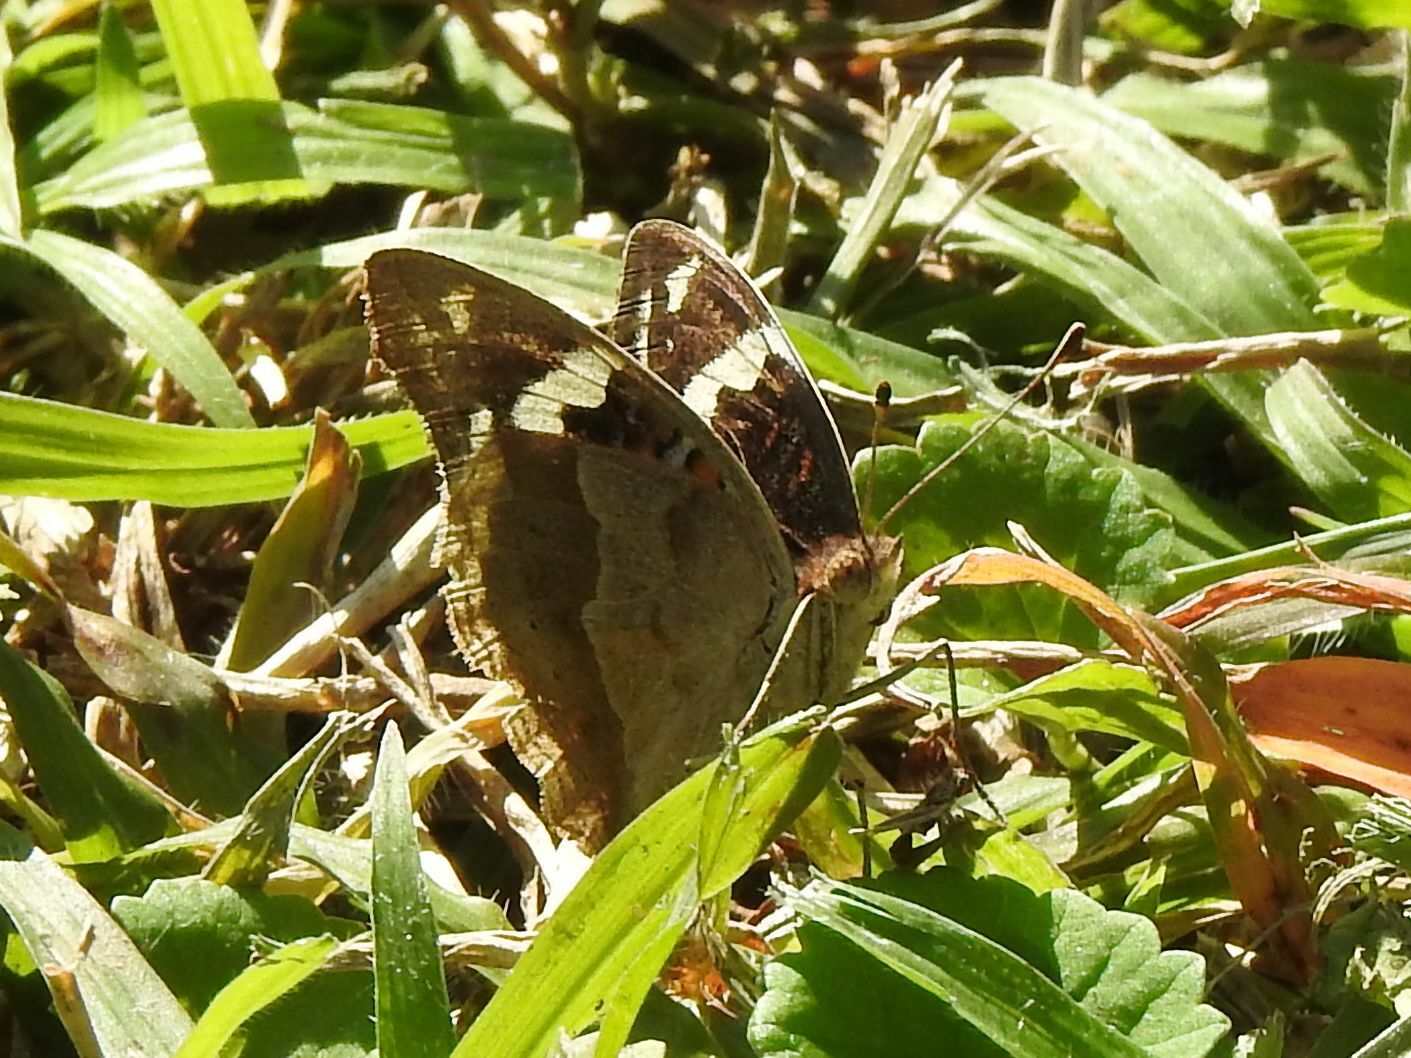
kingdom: Animalia
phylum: Arthropoda
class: Insecta
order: Lepidoptera
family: Nymphalidae
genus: Junonia
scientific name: Junonia oenone
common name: Dark blue pansy
